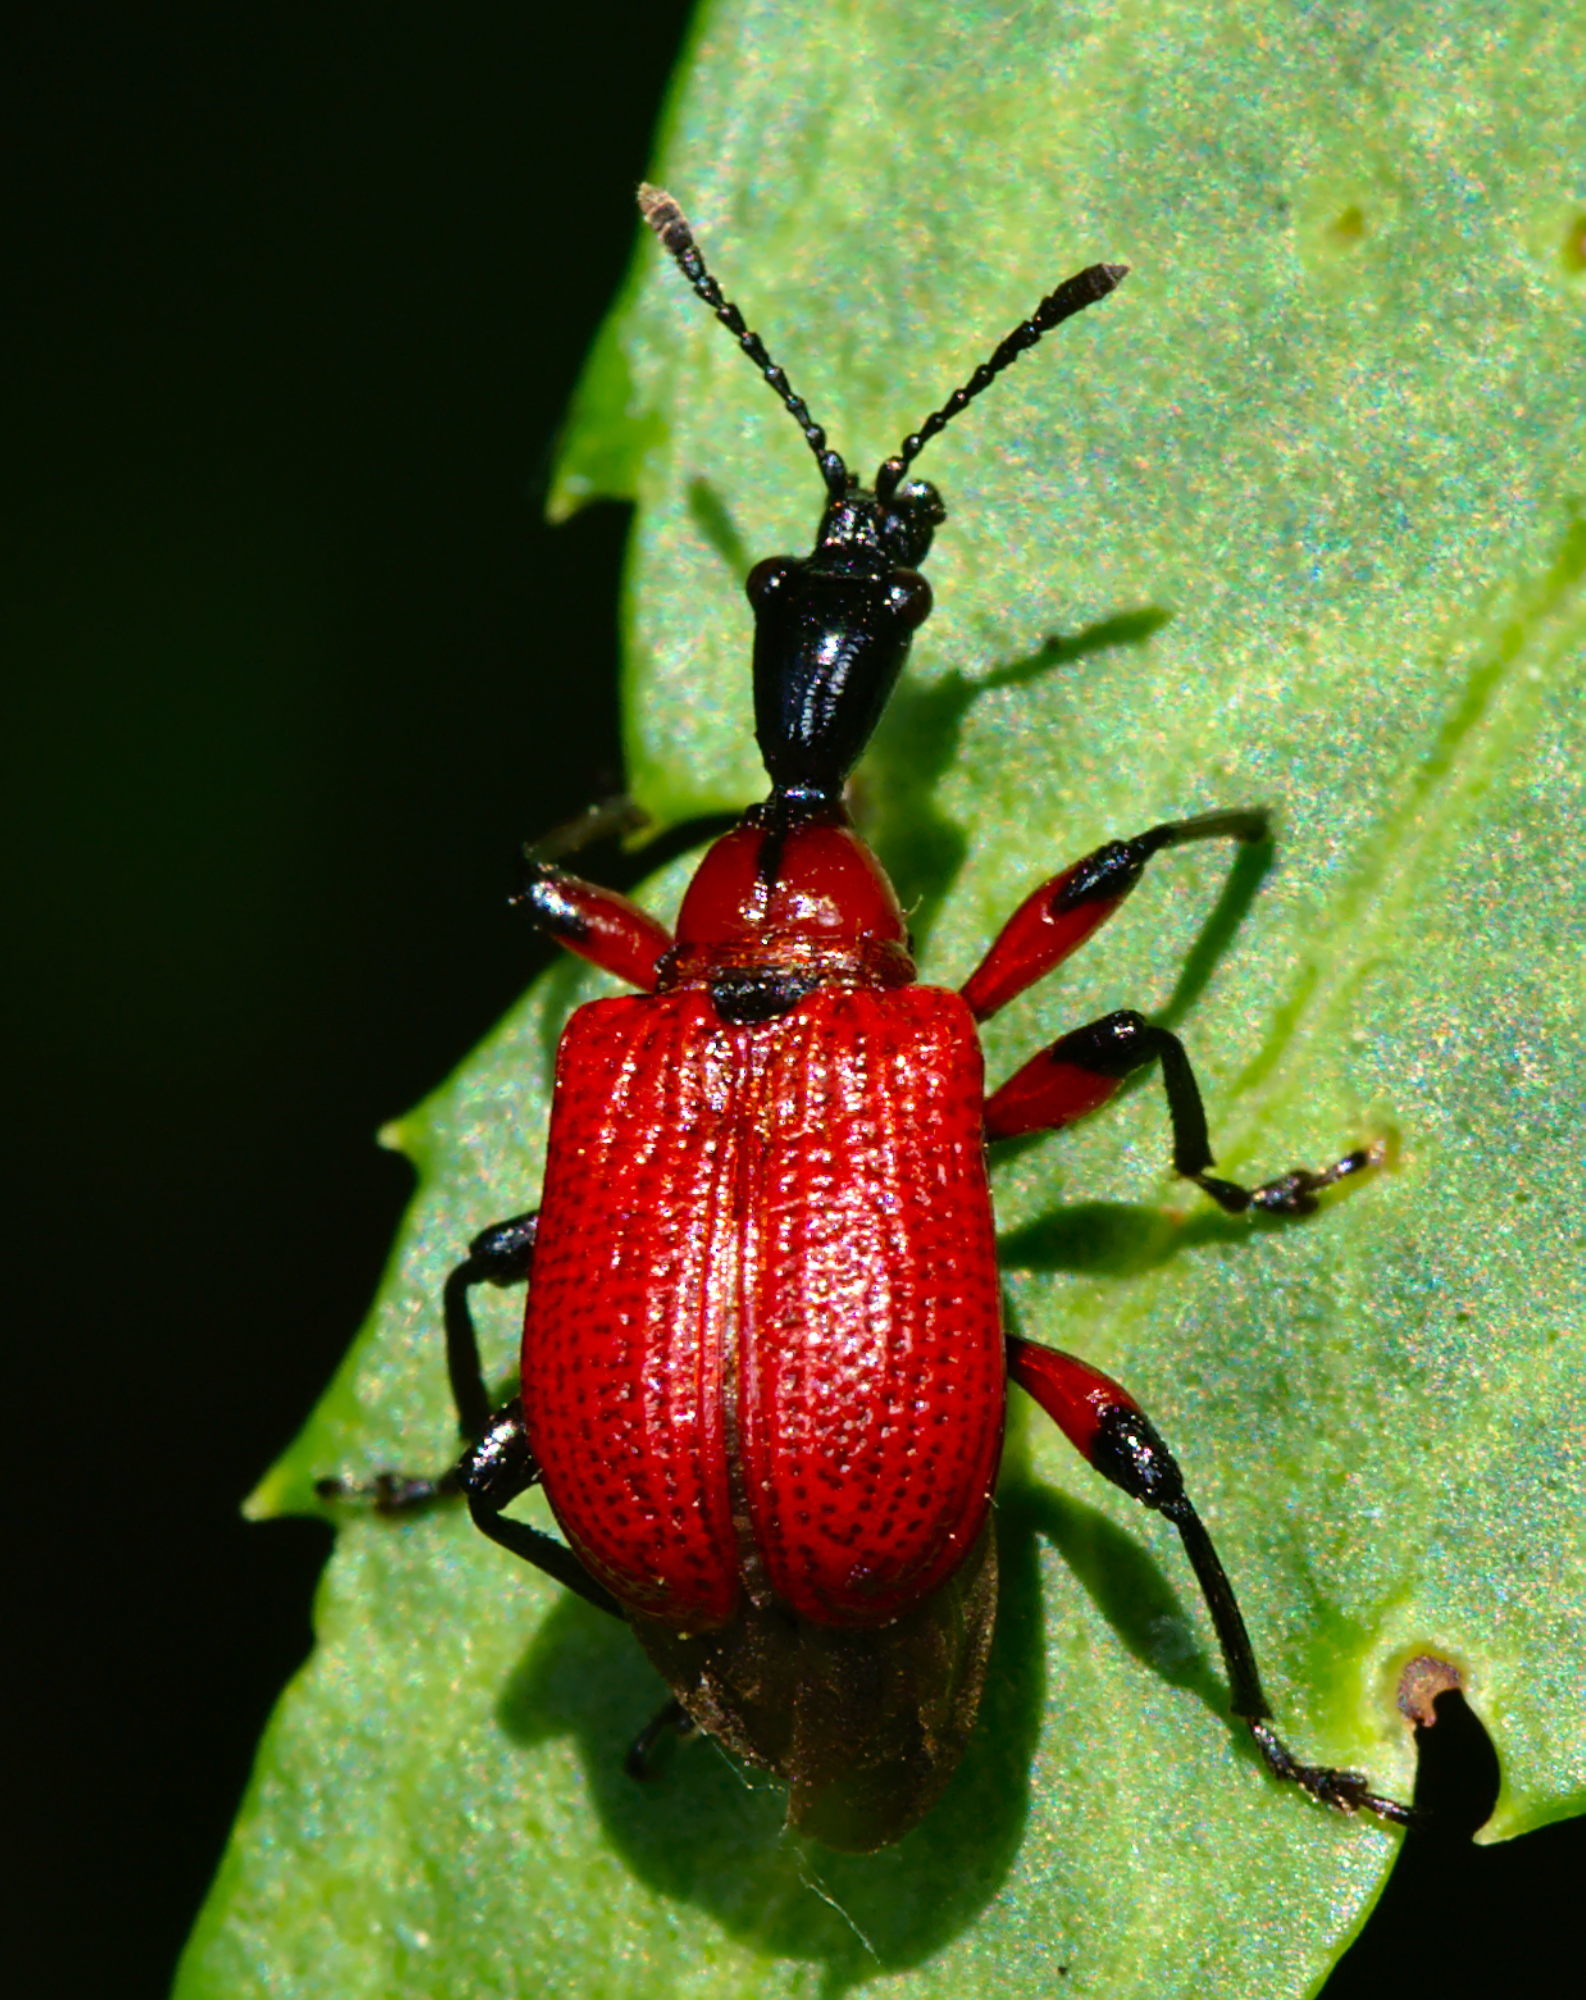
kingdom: Animalia
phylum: Arthropoda
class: Insecta
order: Coleoptera
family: Attelabidae
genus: Apoderus
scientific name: Apoderus coryli
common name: Hazel leaf roller
